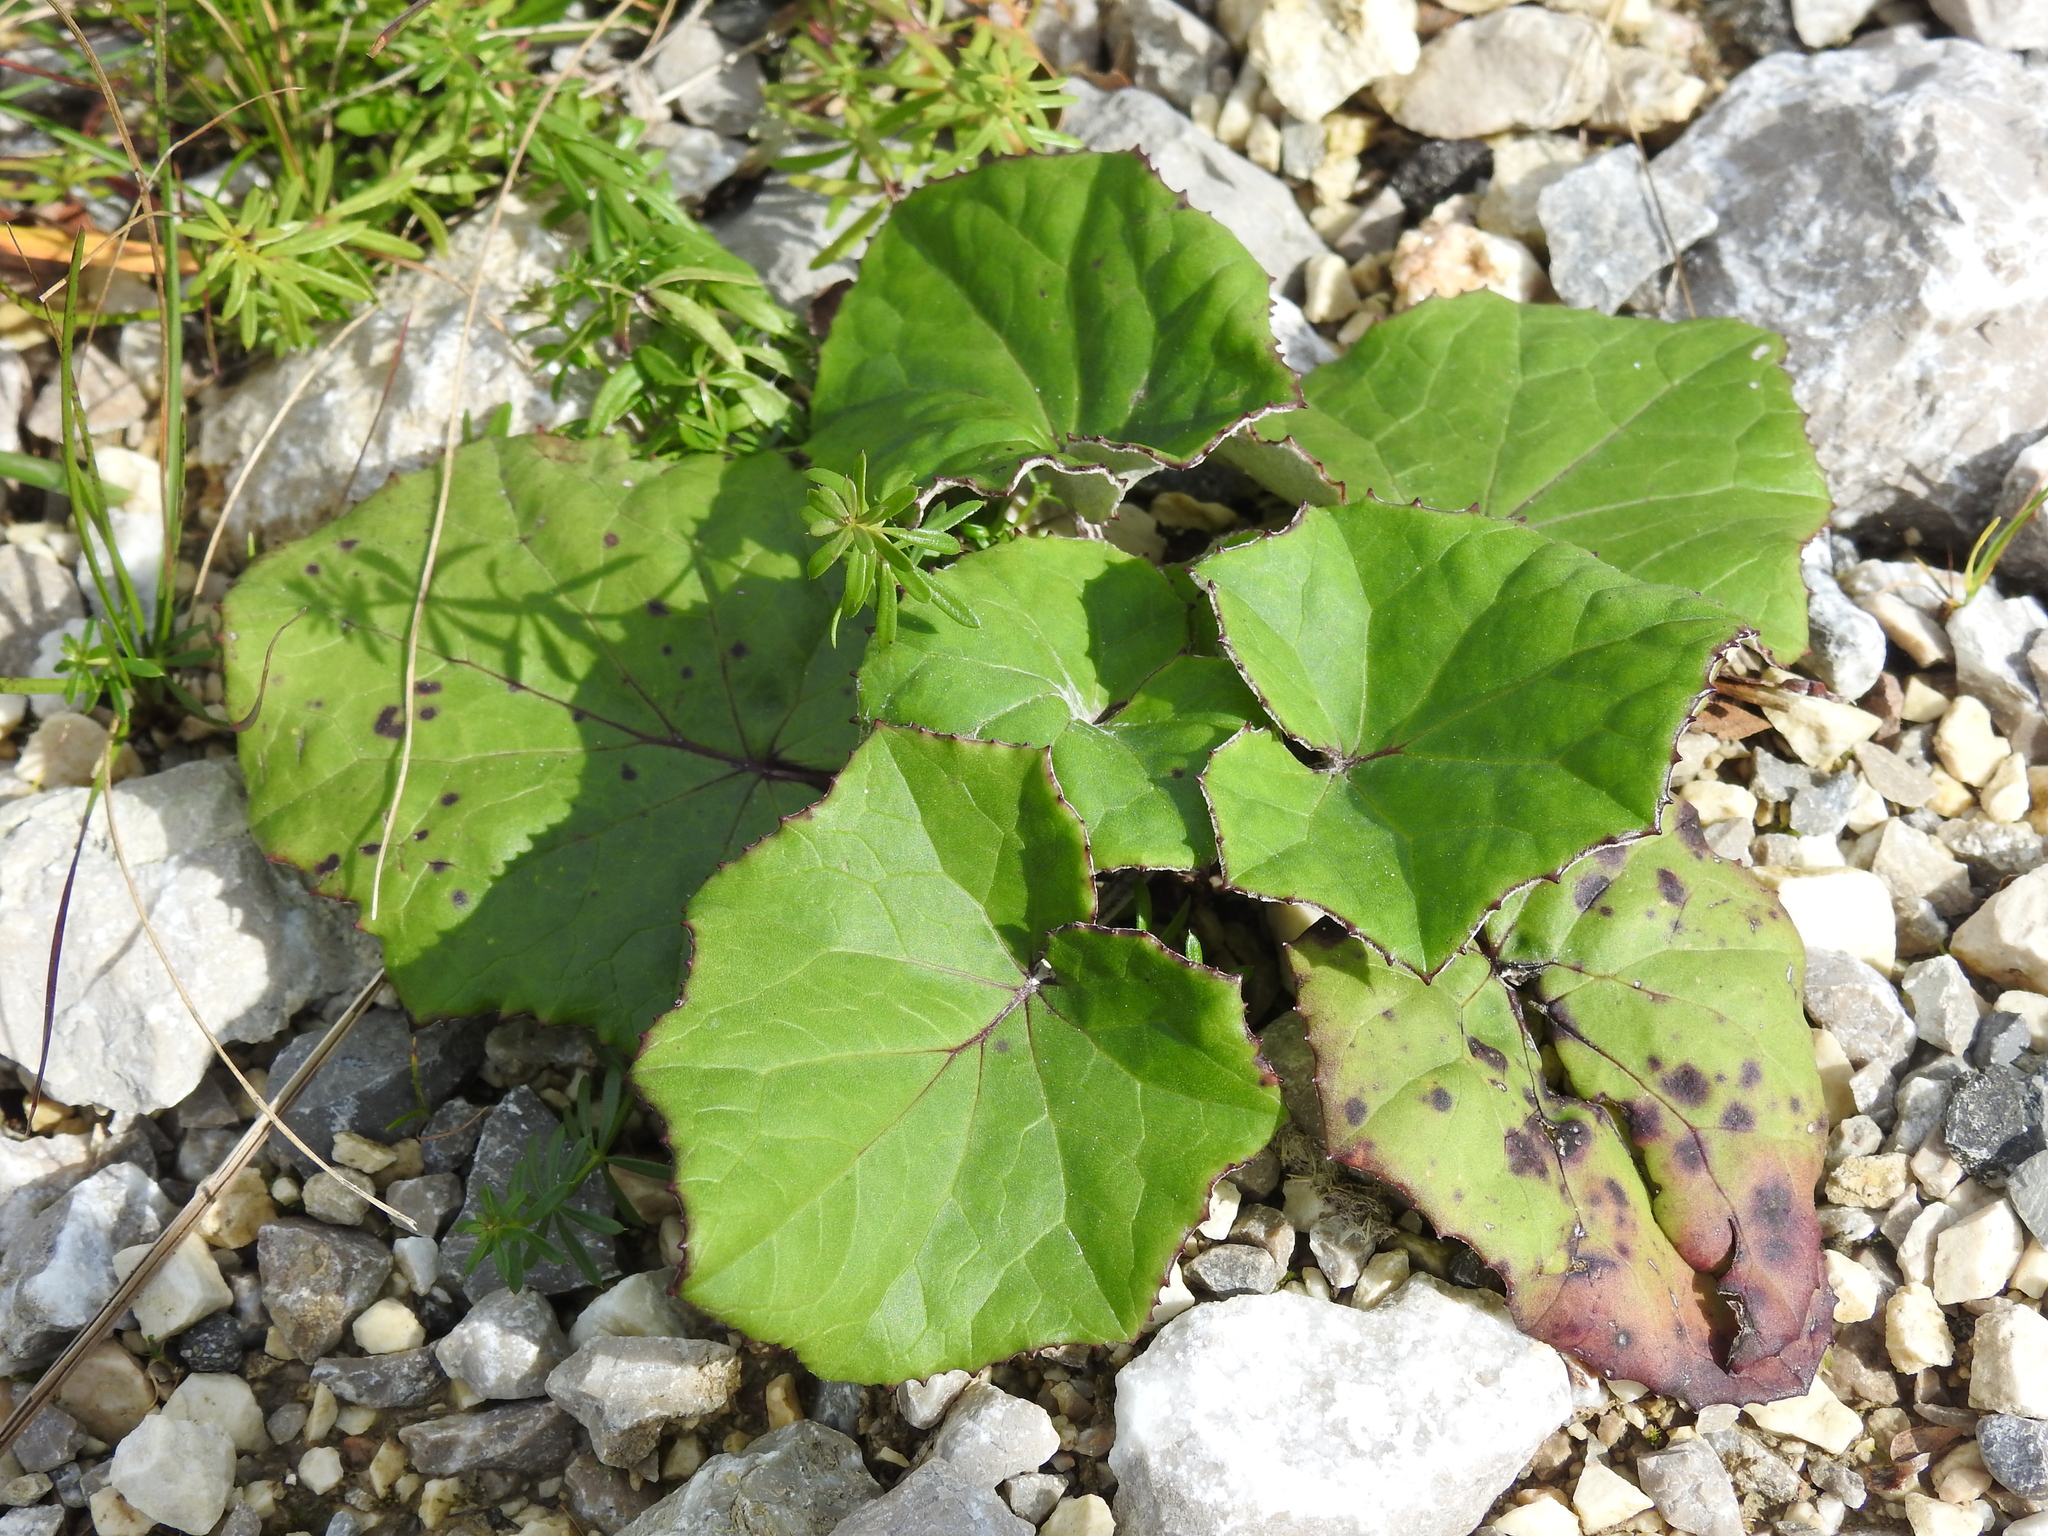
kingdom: Plantae
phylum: Tracheophyta
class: Magnoliopsida
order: Asterales
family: Asteraceae
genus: Tussilago
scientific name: Tussilago farfara
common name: Coltsfoot
